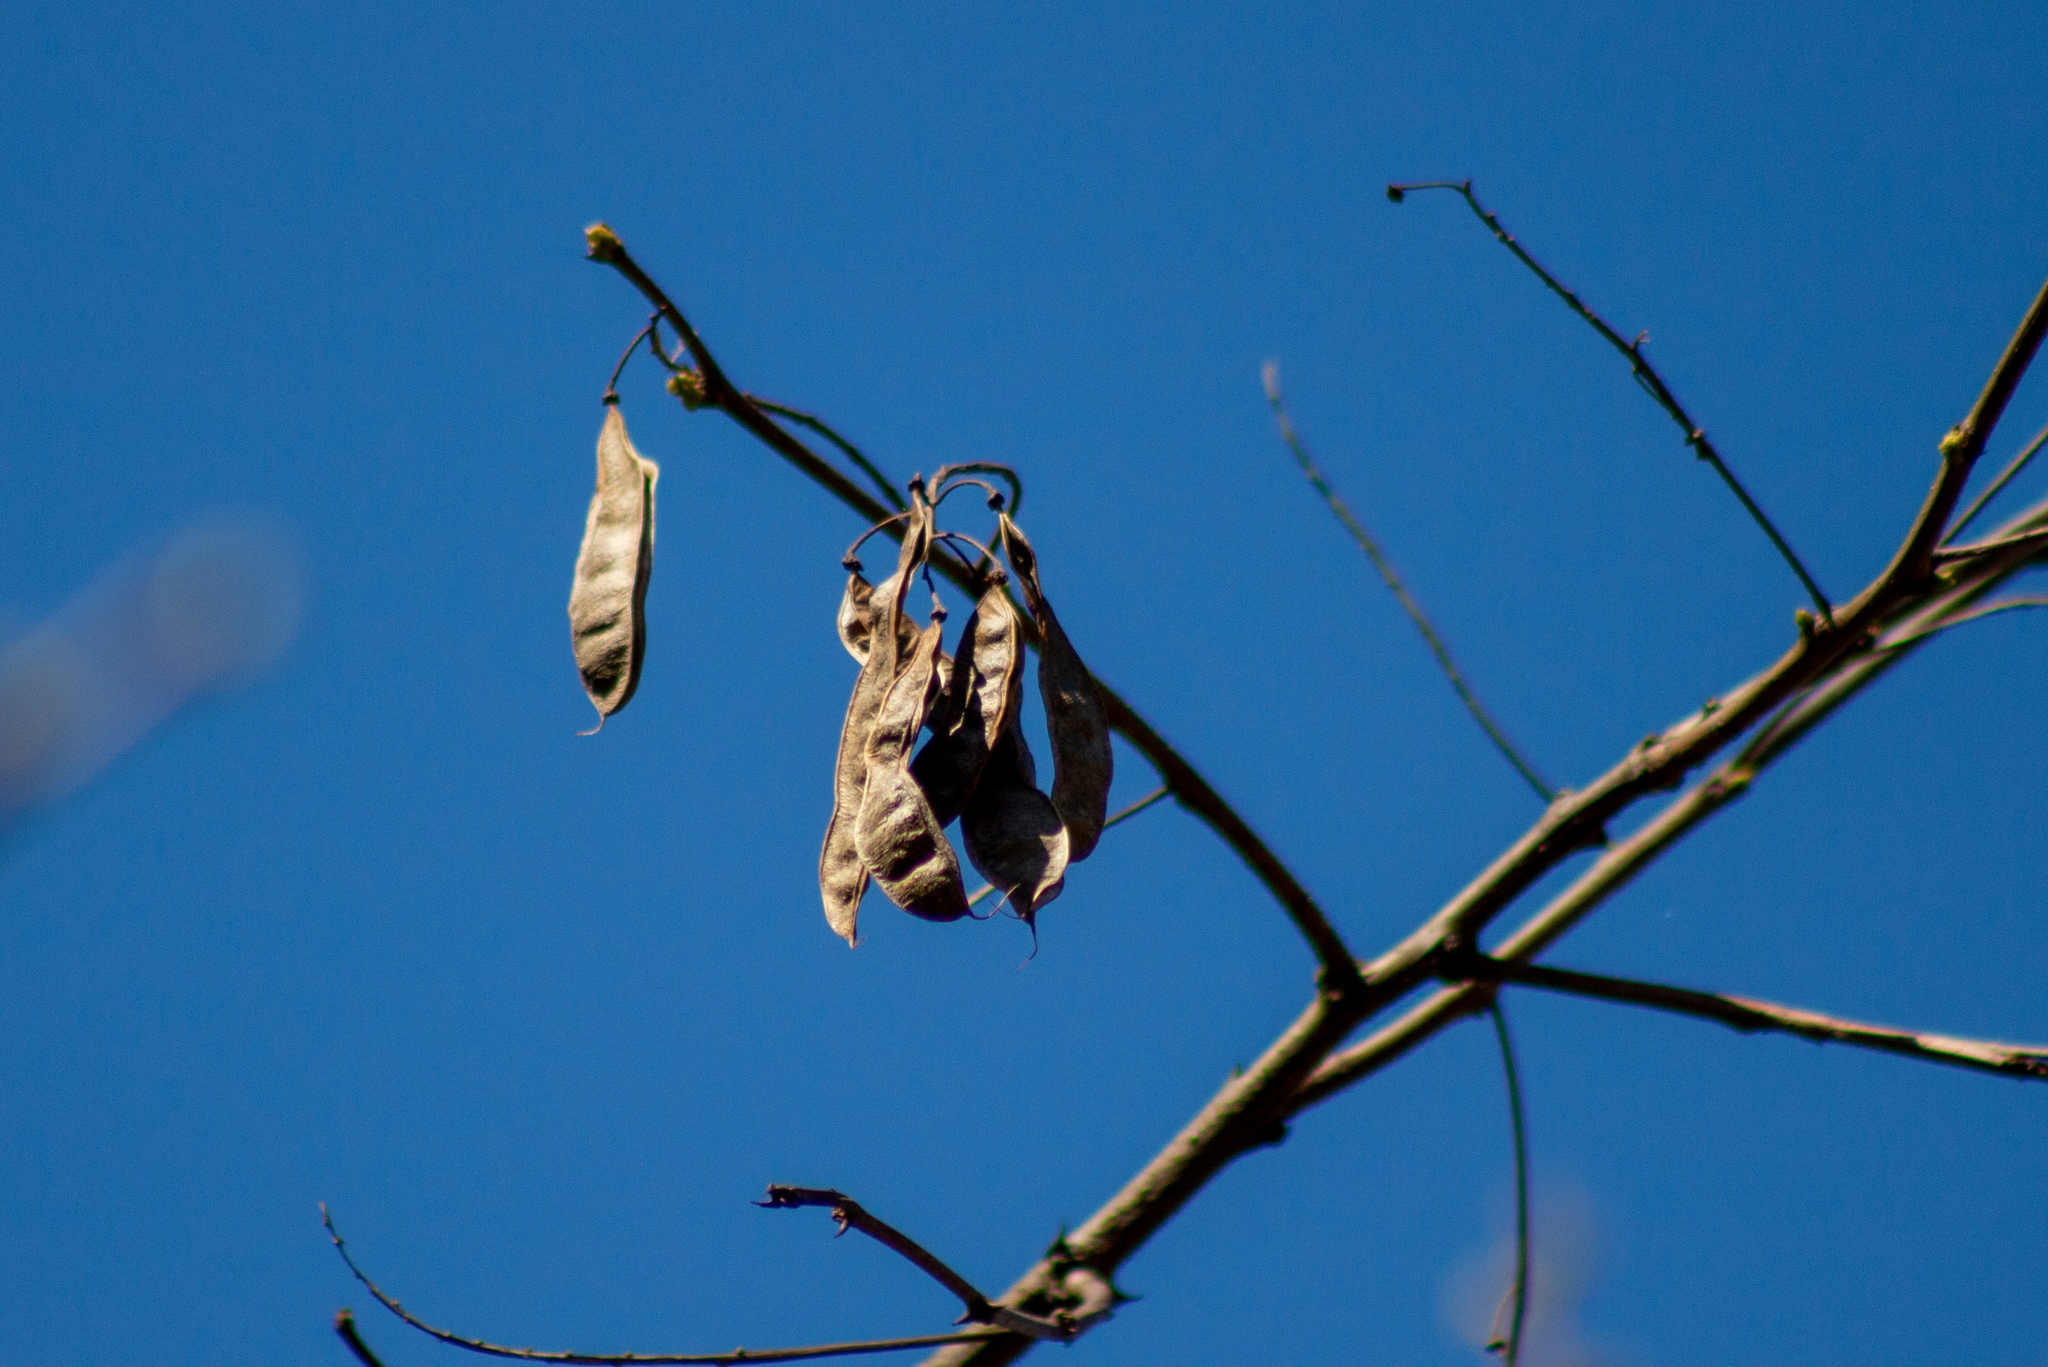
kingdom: Plantae
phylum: Tracheophyta
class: Magnoliopsida
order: Fabales
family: Fabaceae
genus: Robinia
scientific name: Robinia pseudoacacia
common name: Black locust
